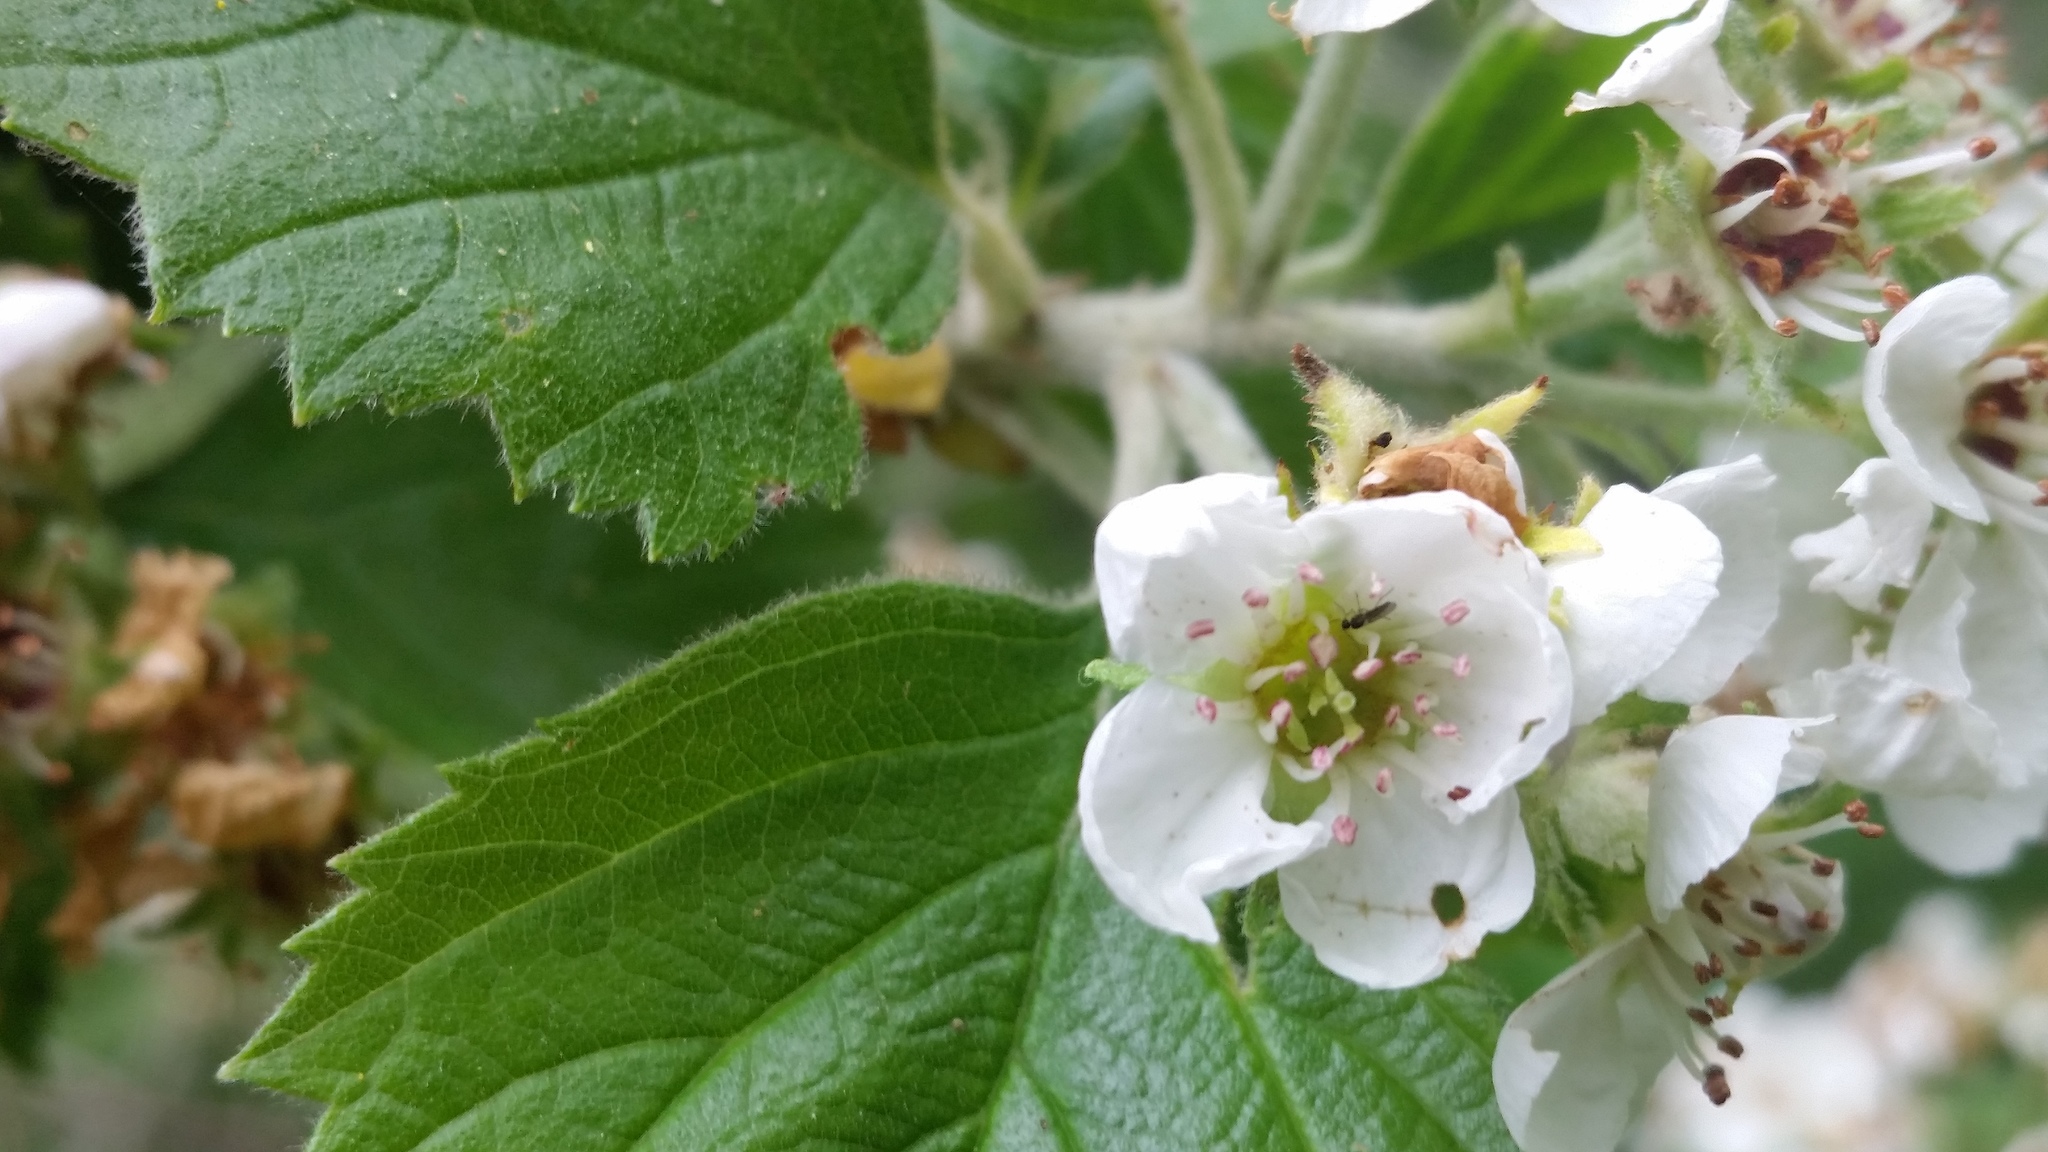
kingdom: Plantae
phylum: Tracheophyta
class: Magnoliopsida
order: Rosales
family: Rosaceae
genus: Crataegus
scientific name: Crataegus texana
